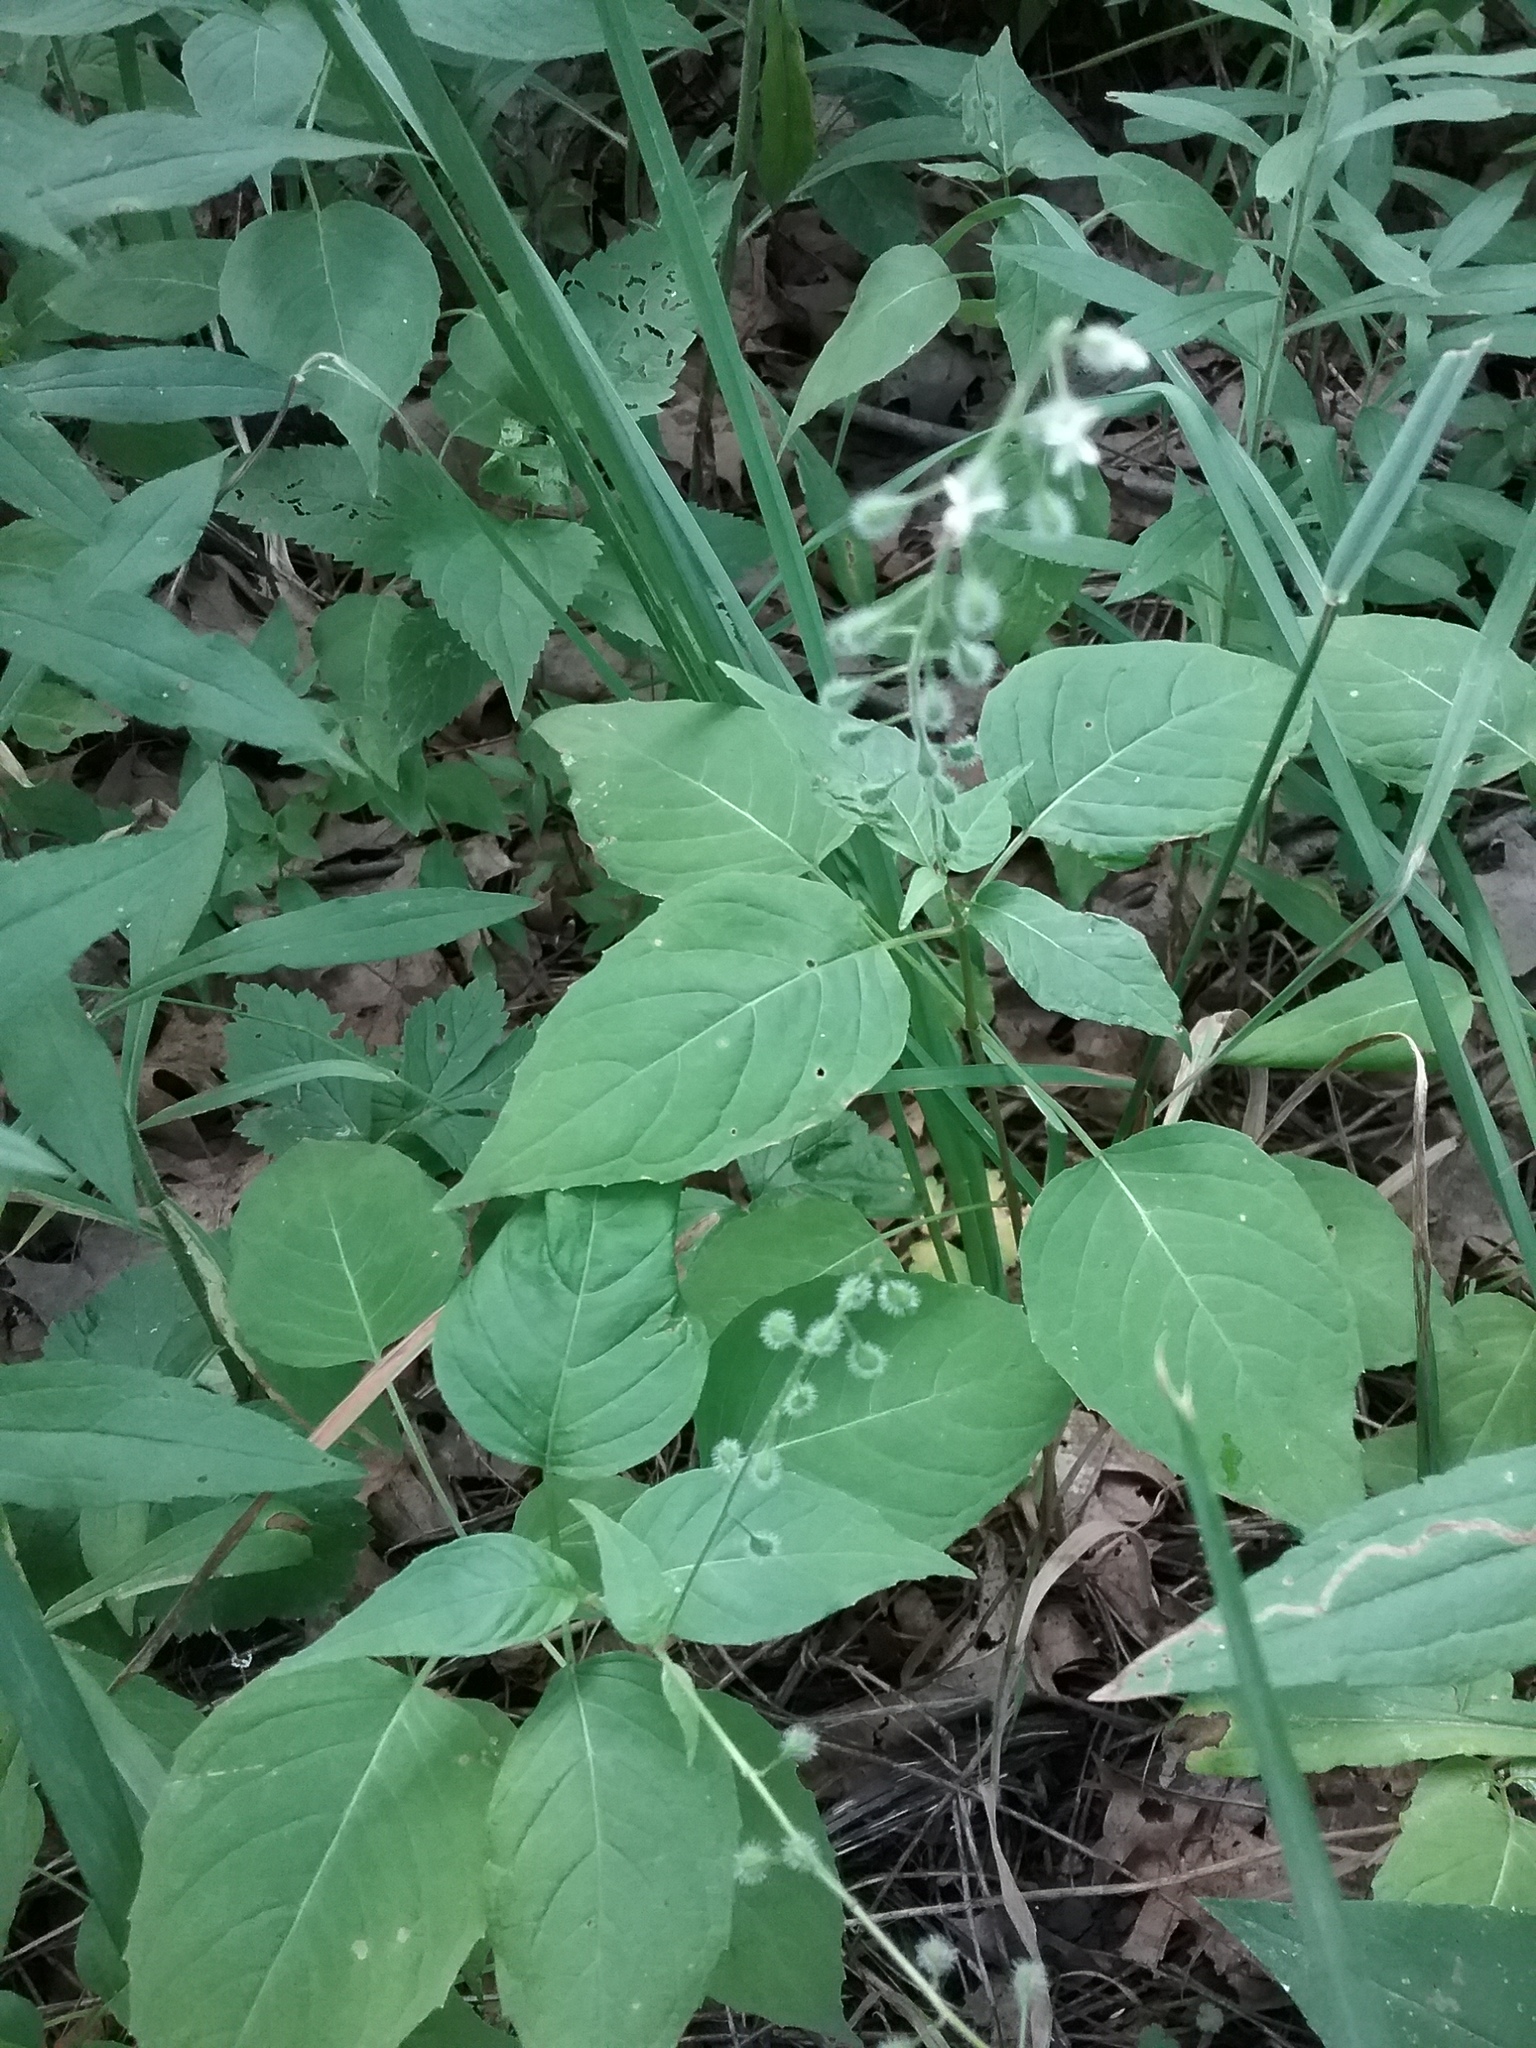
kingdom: Plantae
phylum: Tracheophyta
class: Magnoliopsida
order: Myrtales
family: Onagraceae
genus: Circaea
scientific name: Circaea canadensis
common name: Broad-leaved enchanter's nightshade
